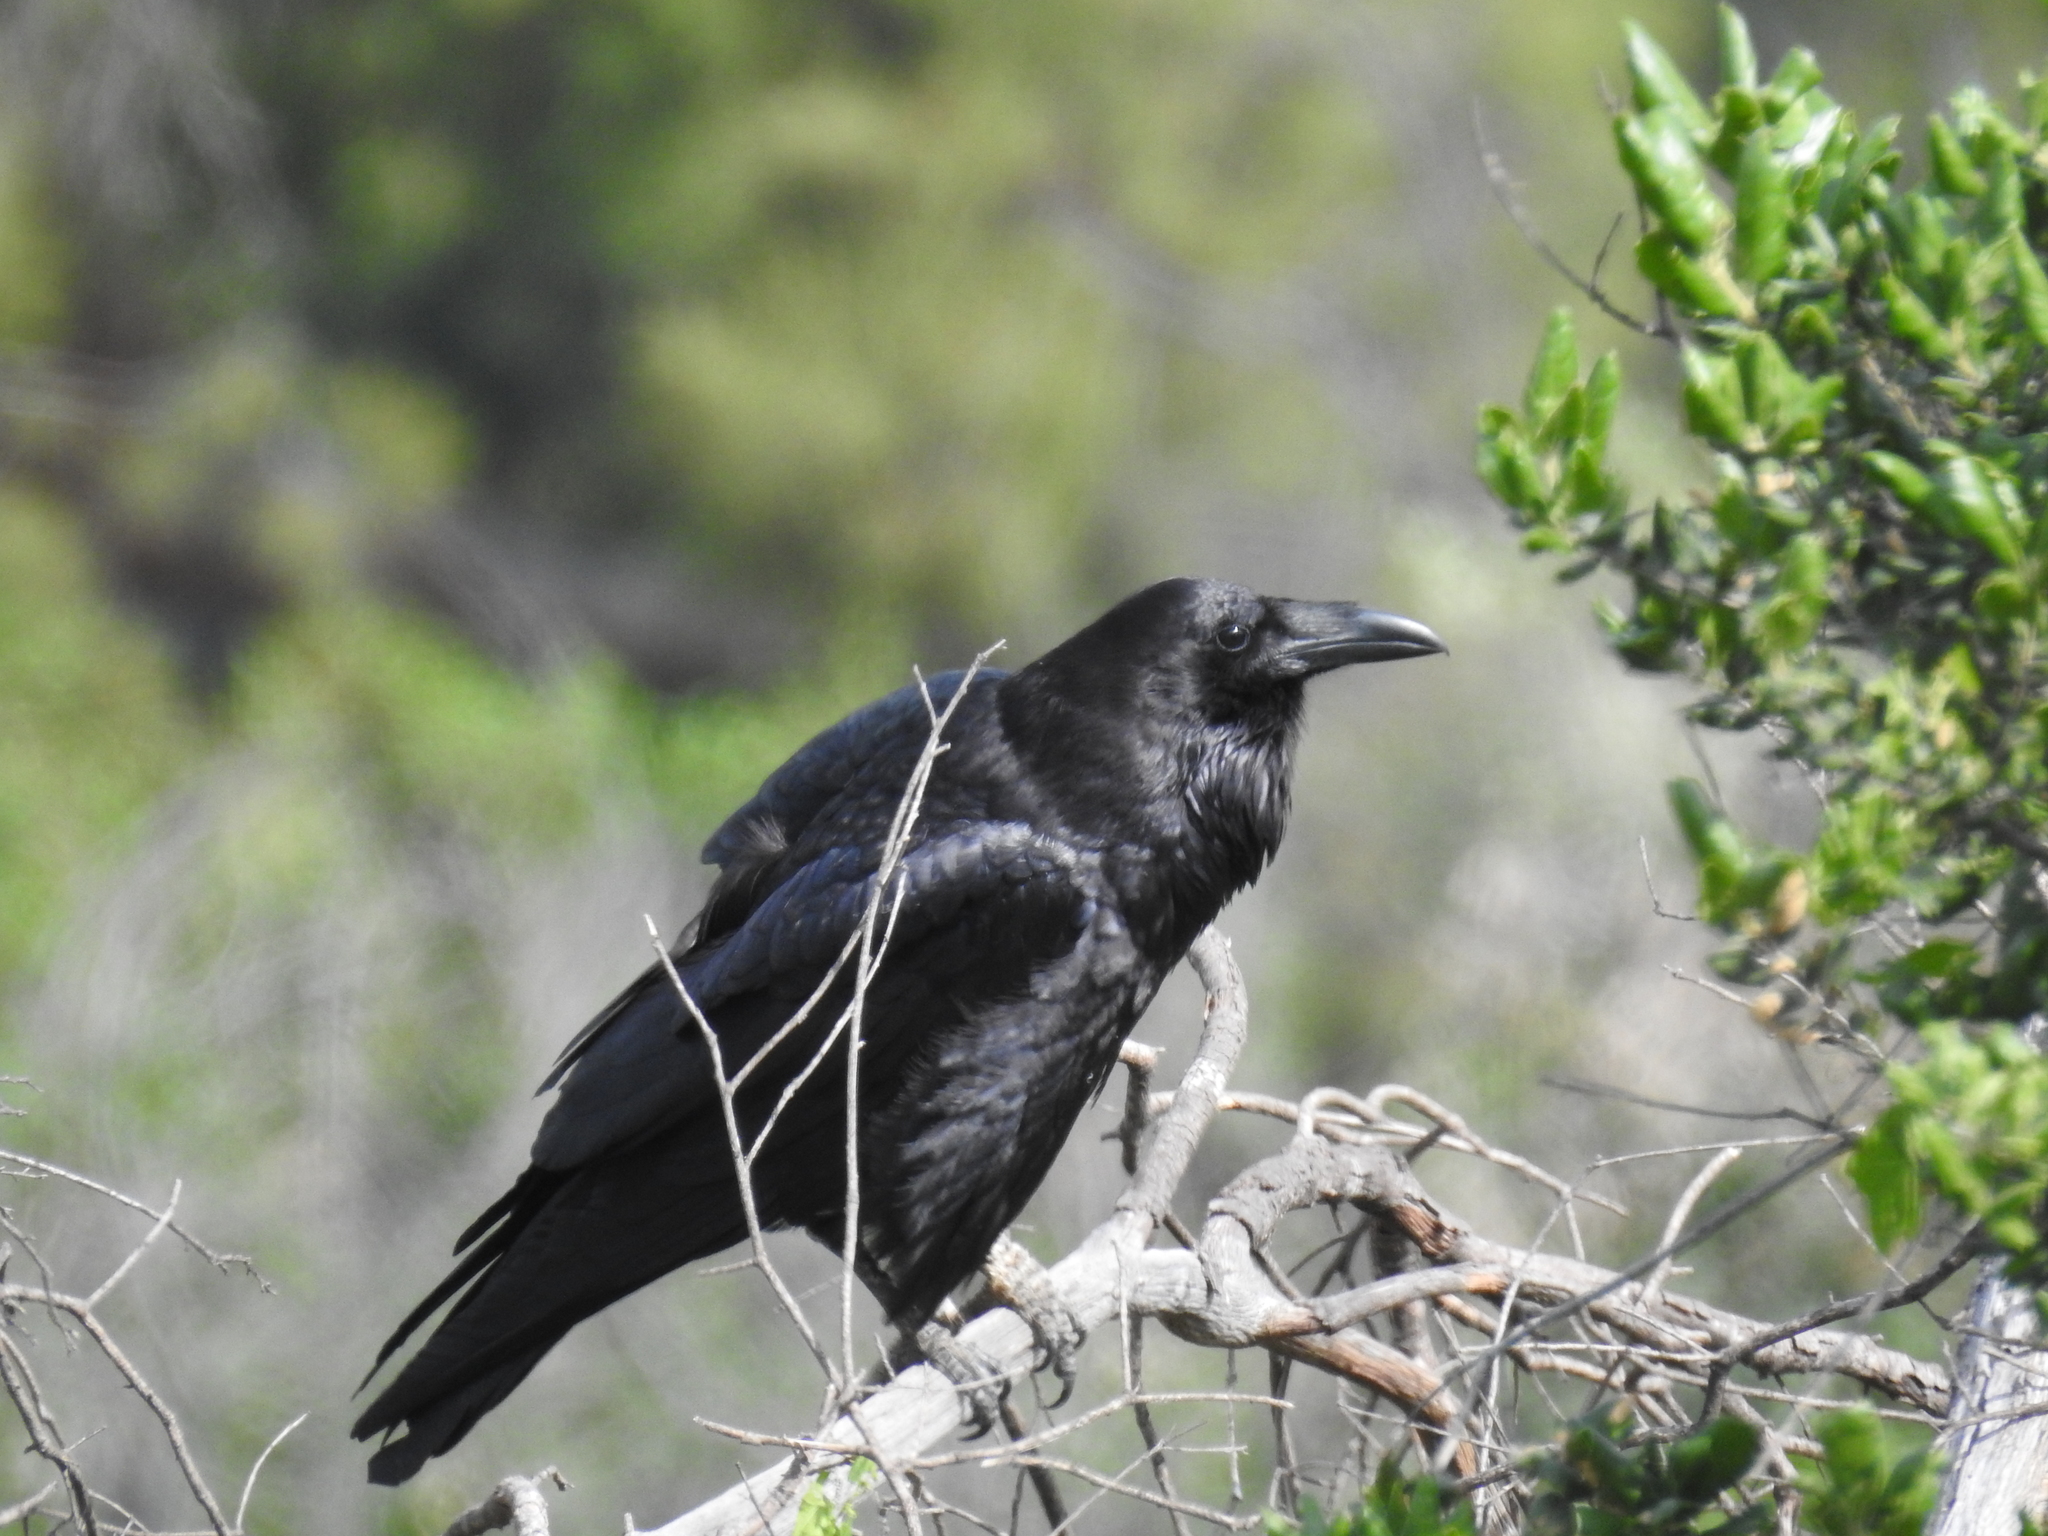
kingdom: Animalia
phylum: Chordata
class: Aves
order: Passeriformes
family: Corvidae
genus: Corvus
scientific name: Corvus corax
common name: Common raven
